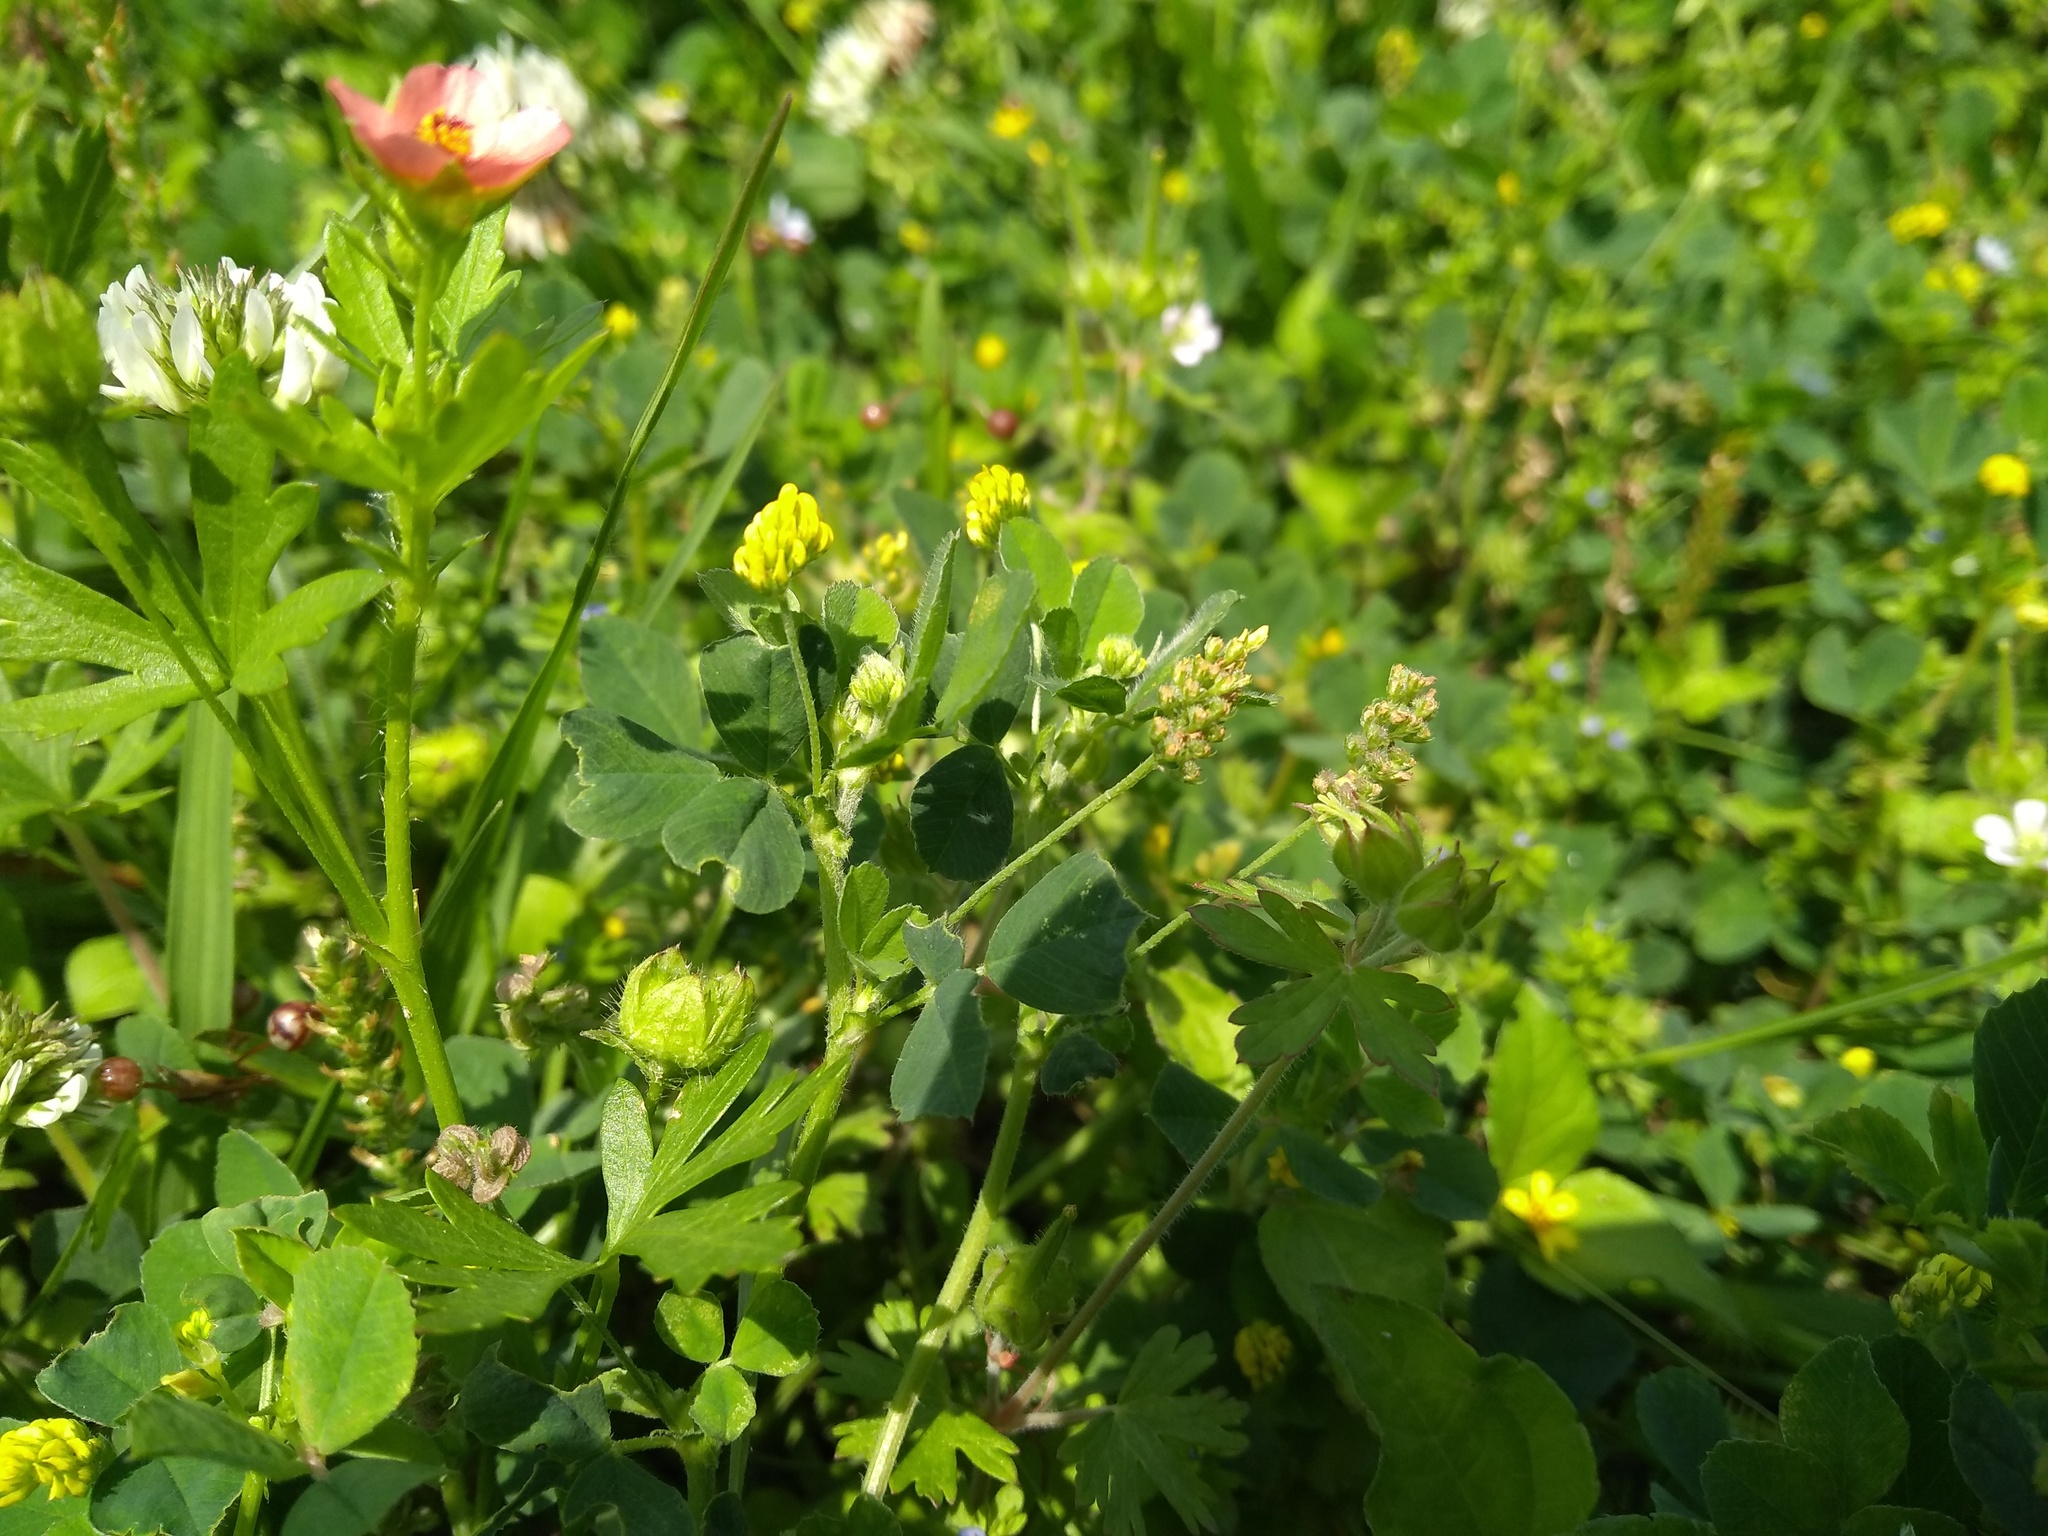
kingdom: Plantae
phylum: Tracheophyta
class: Magnoliopsida
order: Fabales
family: Fabaceae
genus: Medicago
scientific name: Medicago lupulina
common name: Black medick
